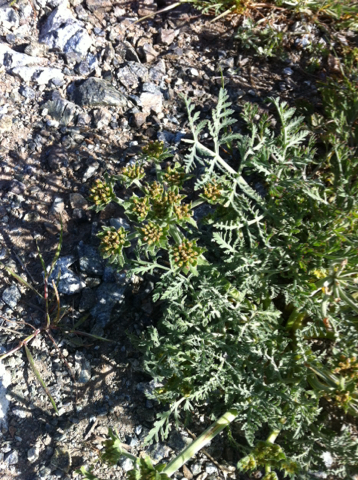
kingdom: Plantae
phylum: Tracheophyta
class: Magnoliopsida
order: Apiales
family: Apiaceae
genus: Lomatium
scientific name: Lomatium macrocarpum
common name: Big-seed biscuitroot
